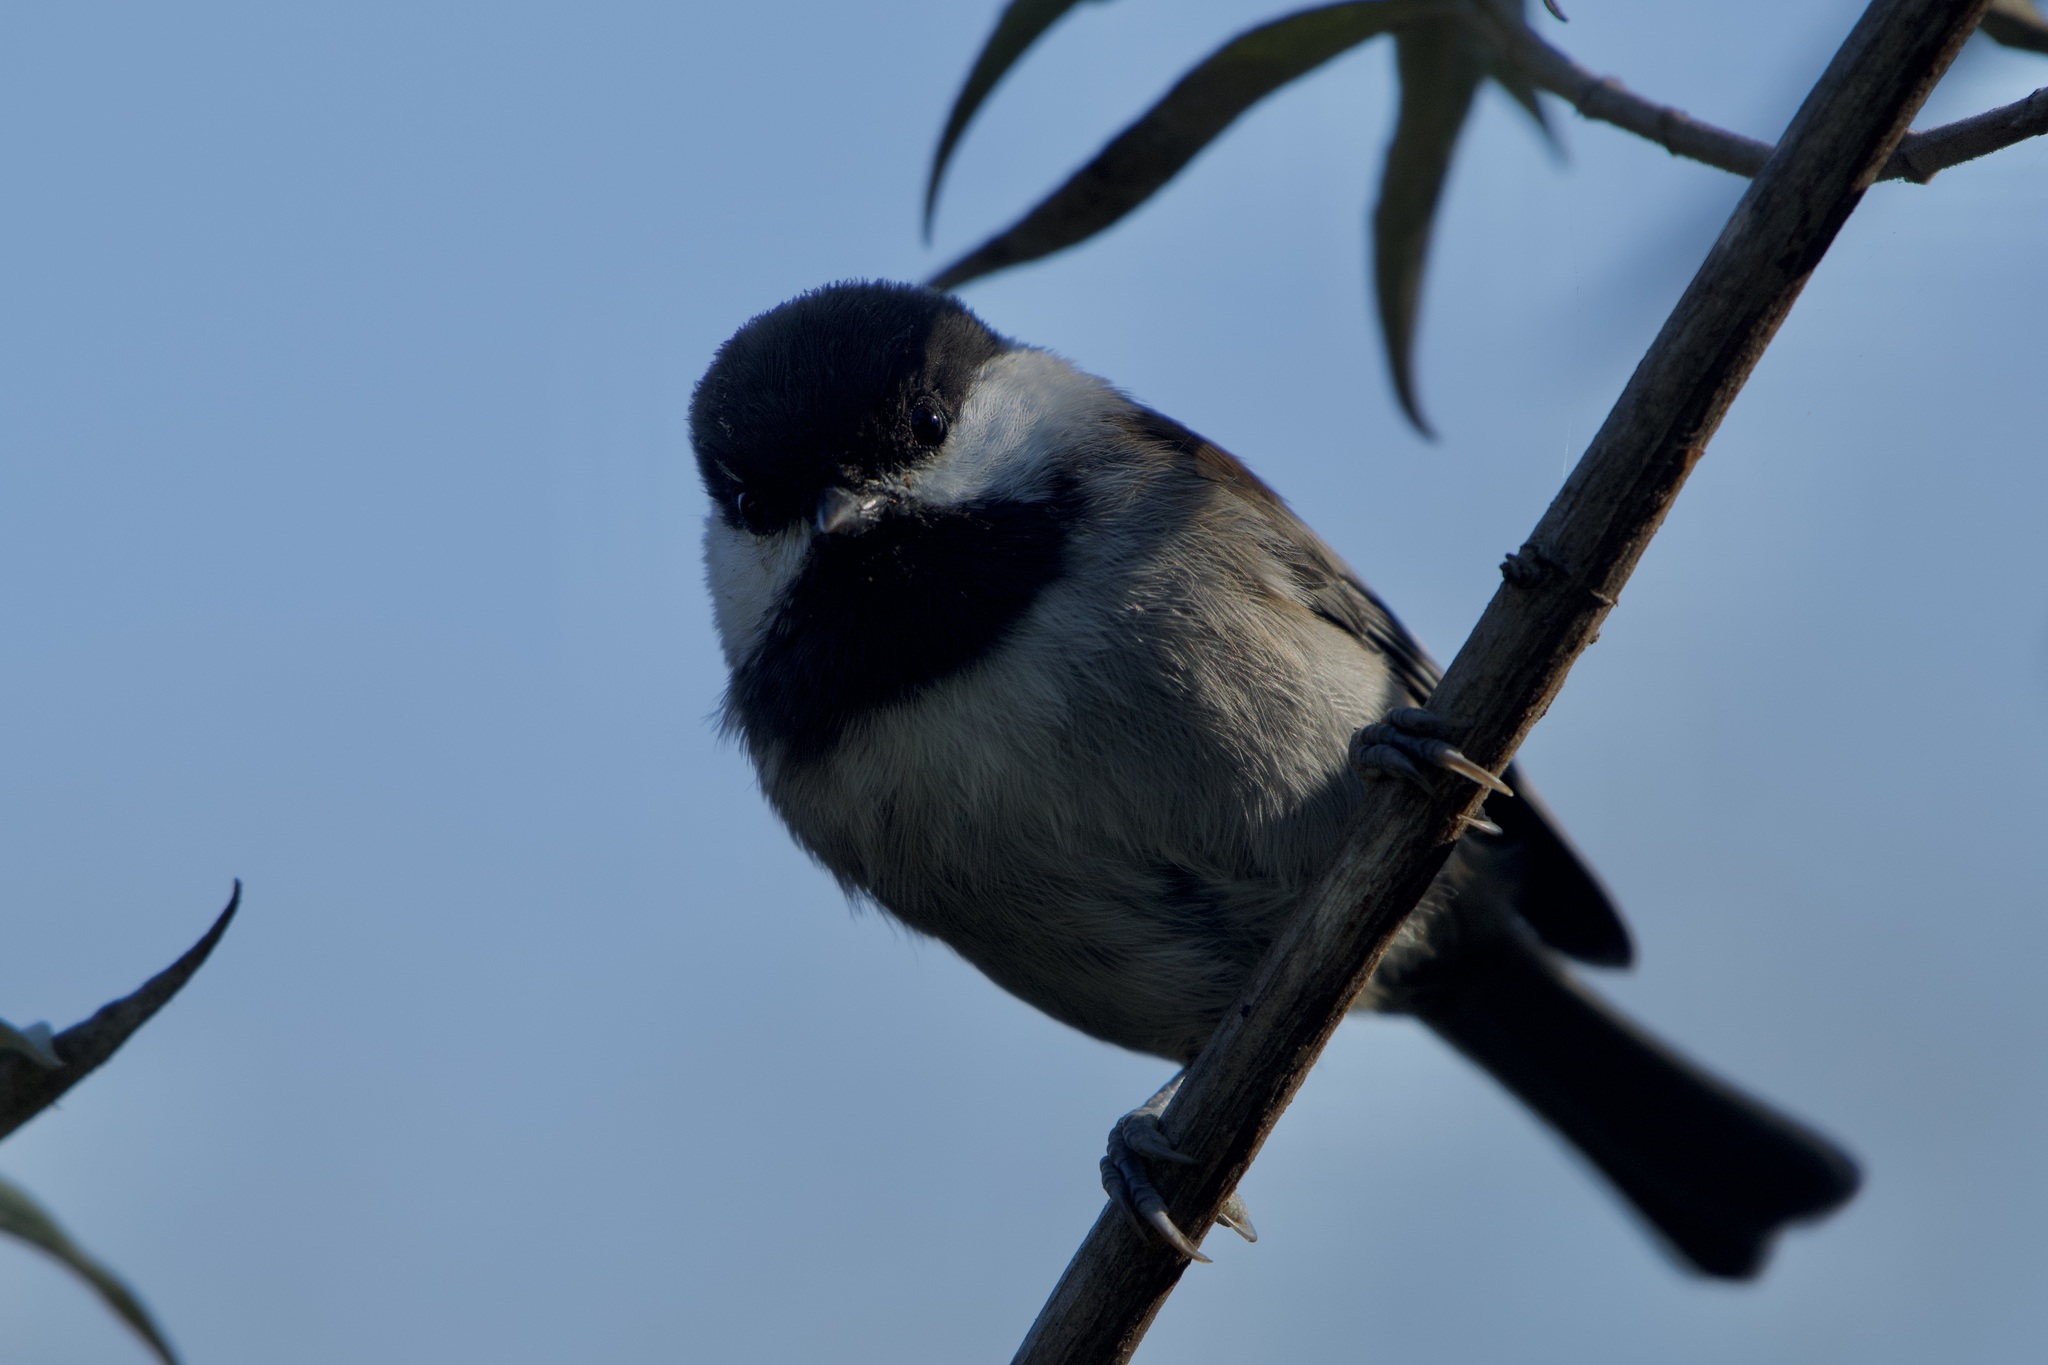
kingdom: Animalia
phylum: Chordata
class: Aves
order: Passeriformes
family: Paridae
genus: Poecile
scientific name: Poecile rufescens
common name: Chestnut-backed chickadee
